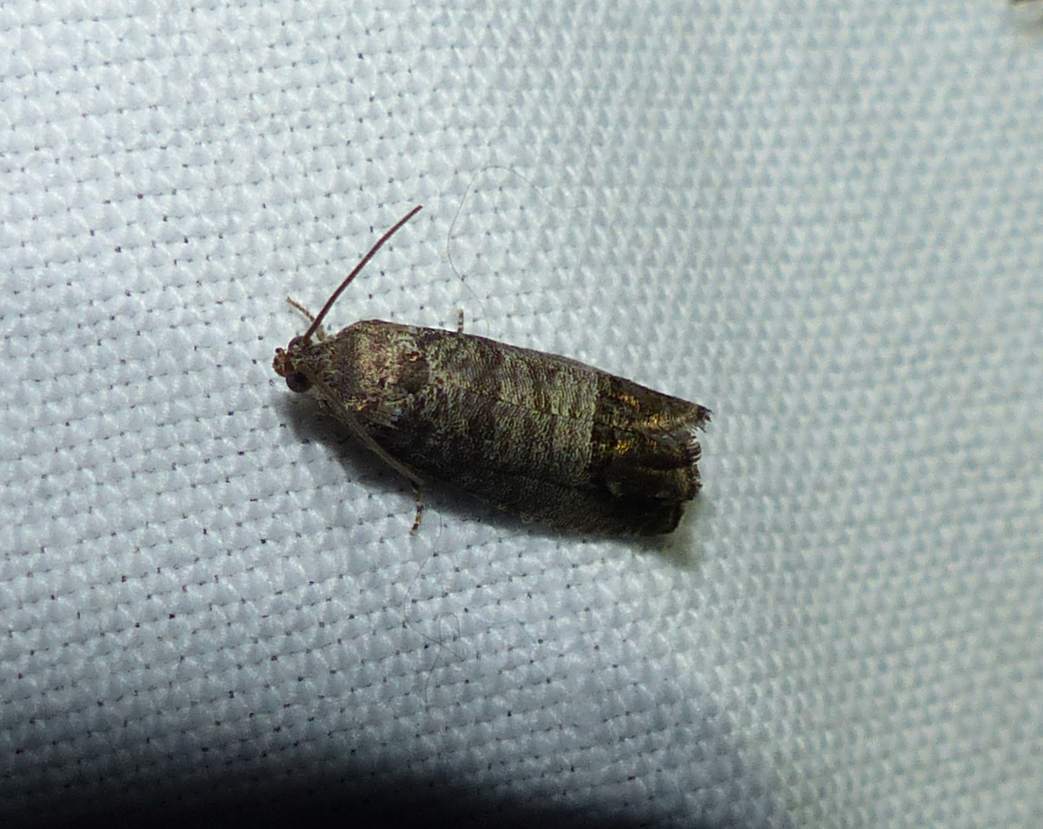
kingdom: Animalia
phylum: Arthropoda
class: Insecta
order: Lepidoptera
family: Tortricidae
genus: Cydia
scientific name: Cydia pomonella
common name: Codling moth
